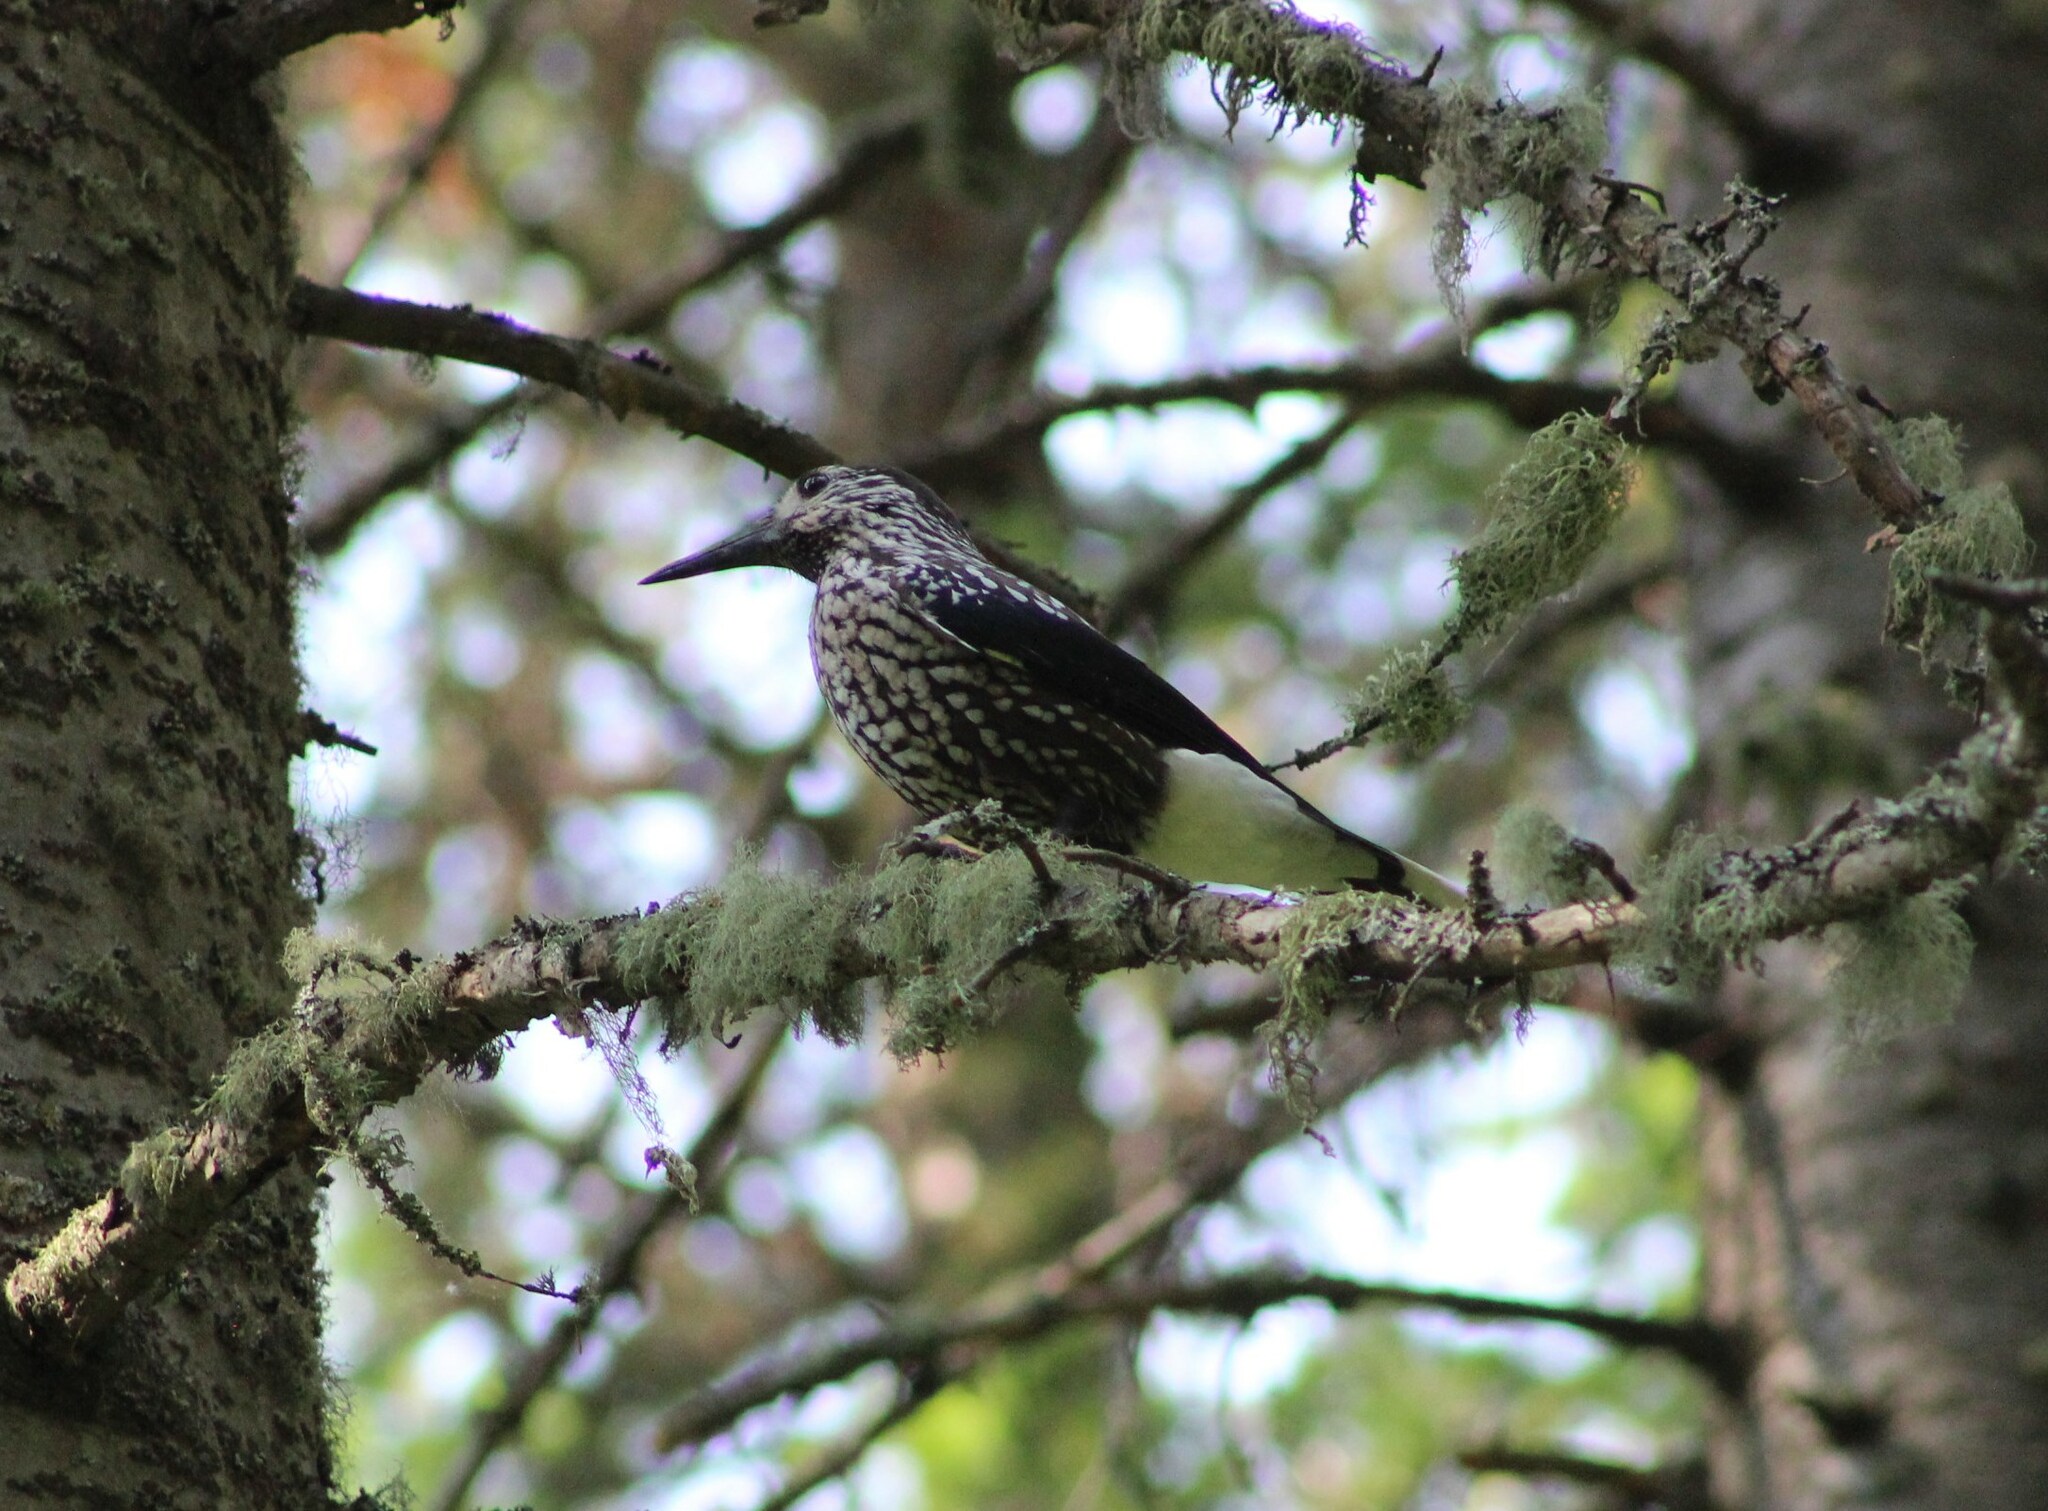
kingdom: Animalia
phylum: Chordata
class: Aves
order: Passeriformes
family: Corvidae
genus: Nucifraga
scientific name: Nucifraga caryocatactes
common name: Spotted nutcracker
